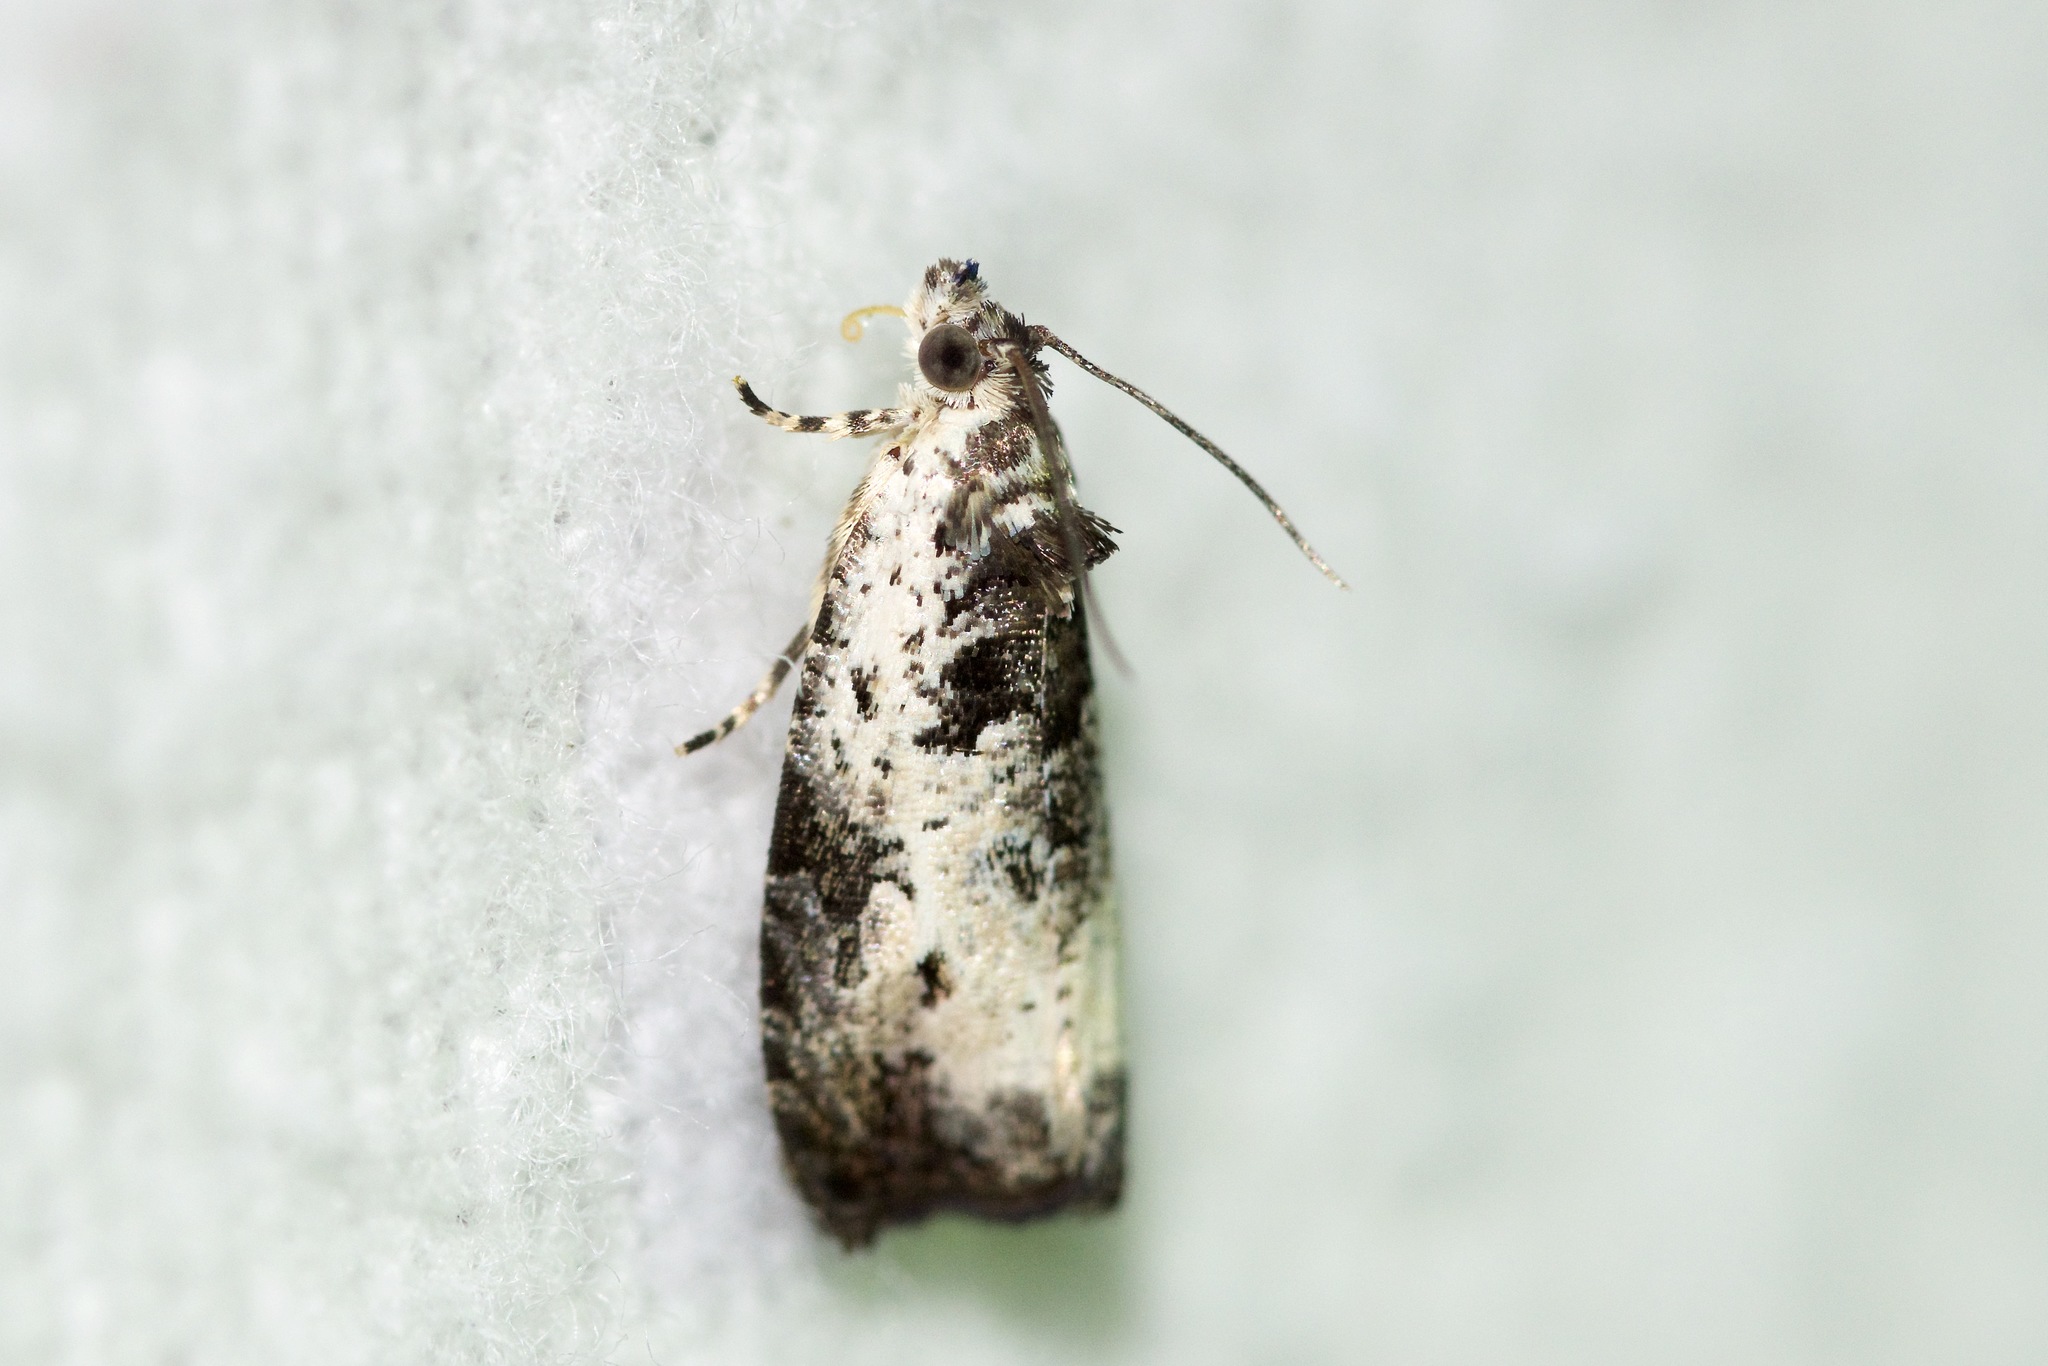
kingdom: Animalia
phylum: Arthropoda
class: Insecta
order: Lepidoptera
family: Tortricidae
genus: Olethreutes
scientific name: Olethreutes malana
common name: Malana leafroller moth
